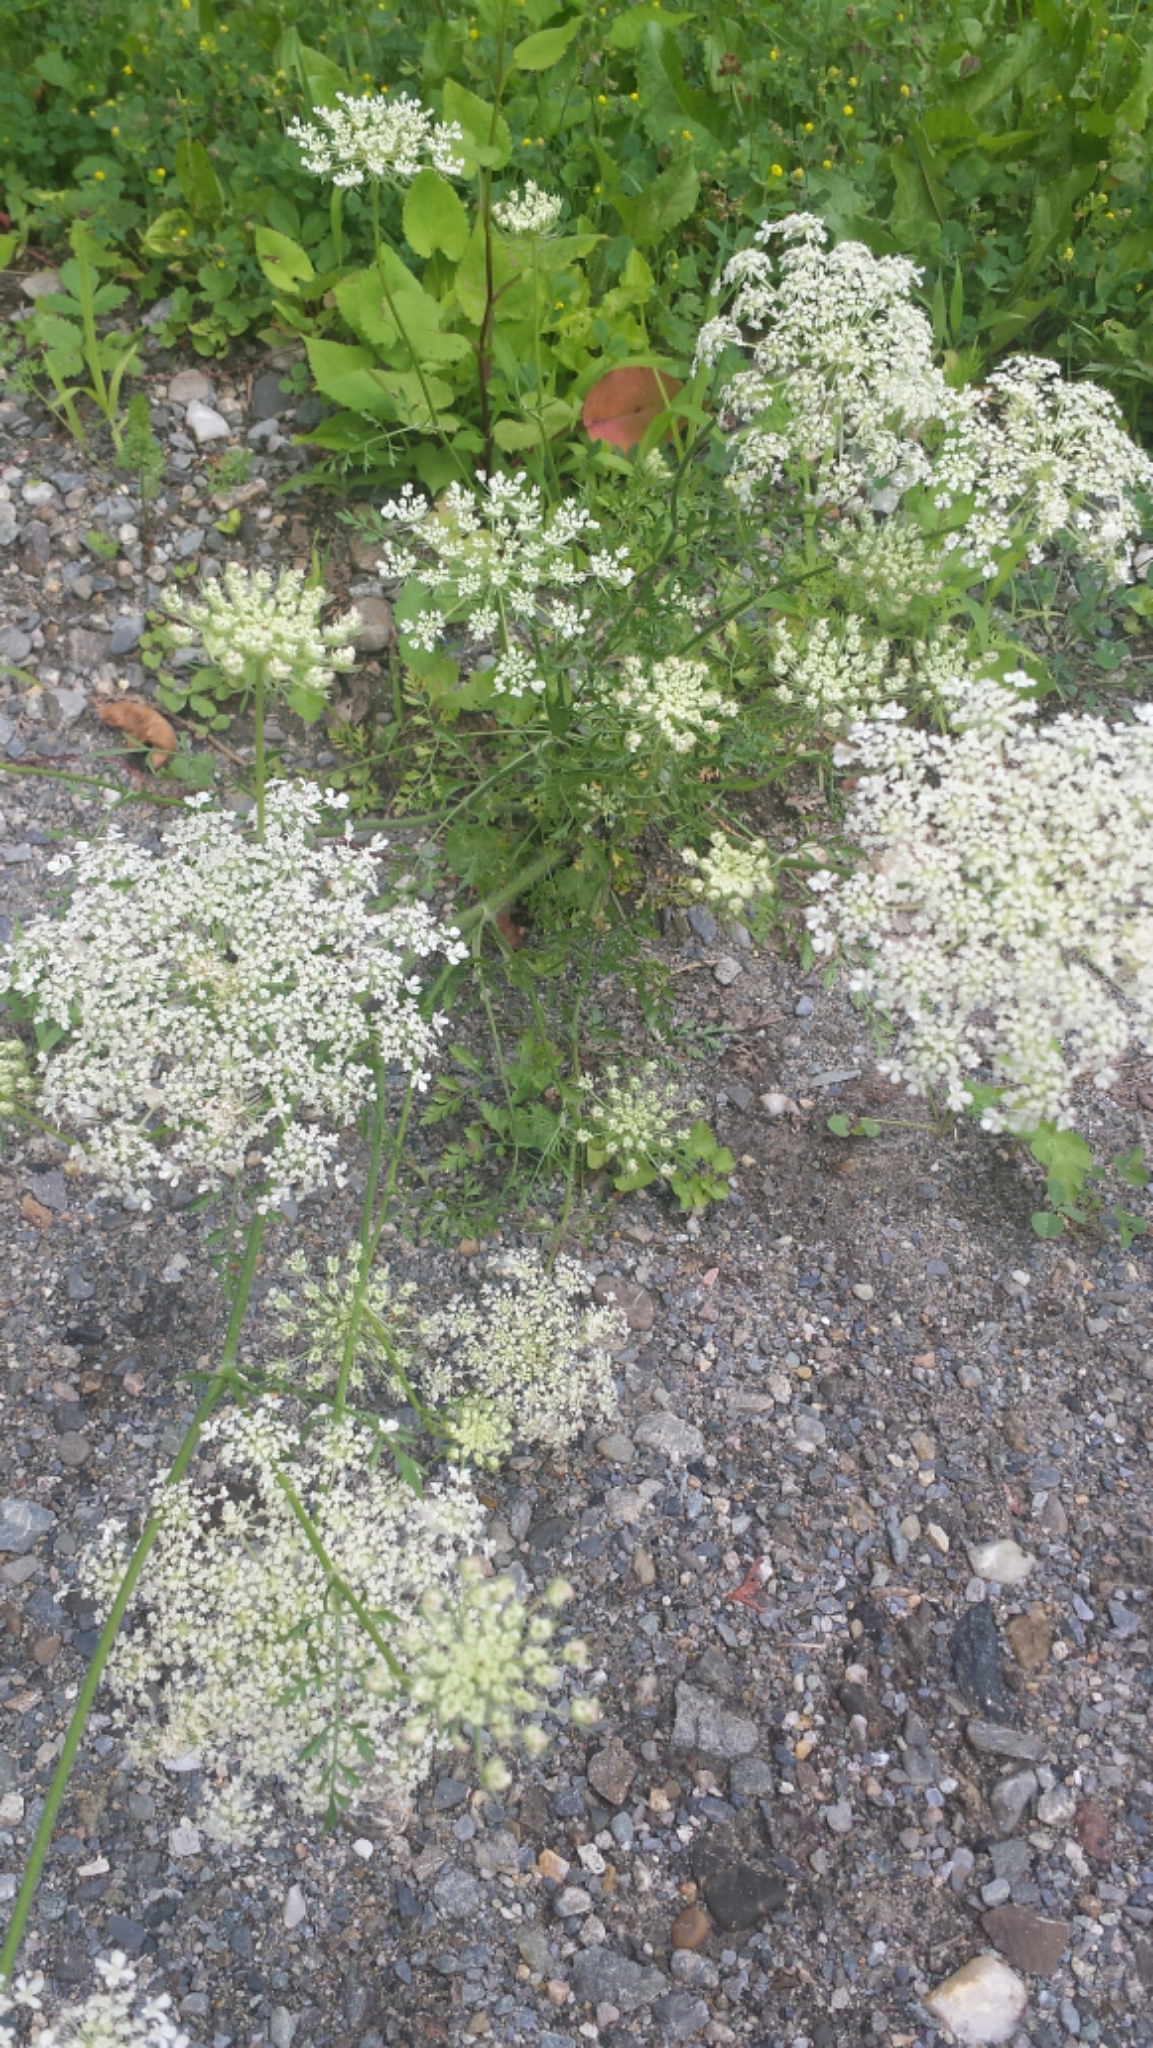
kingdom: Plantae
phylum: Tracheophyta
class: Magnoliopsida
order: Apiales
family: Apiaceae
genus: Daucus
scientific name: Daucus carota
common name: Wild carrot
